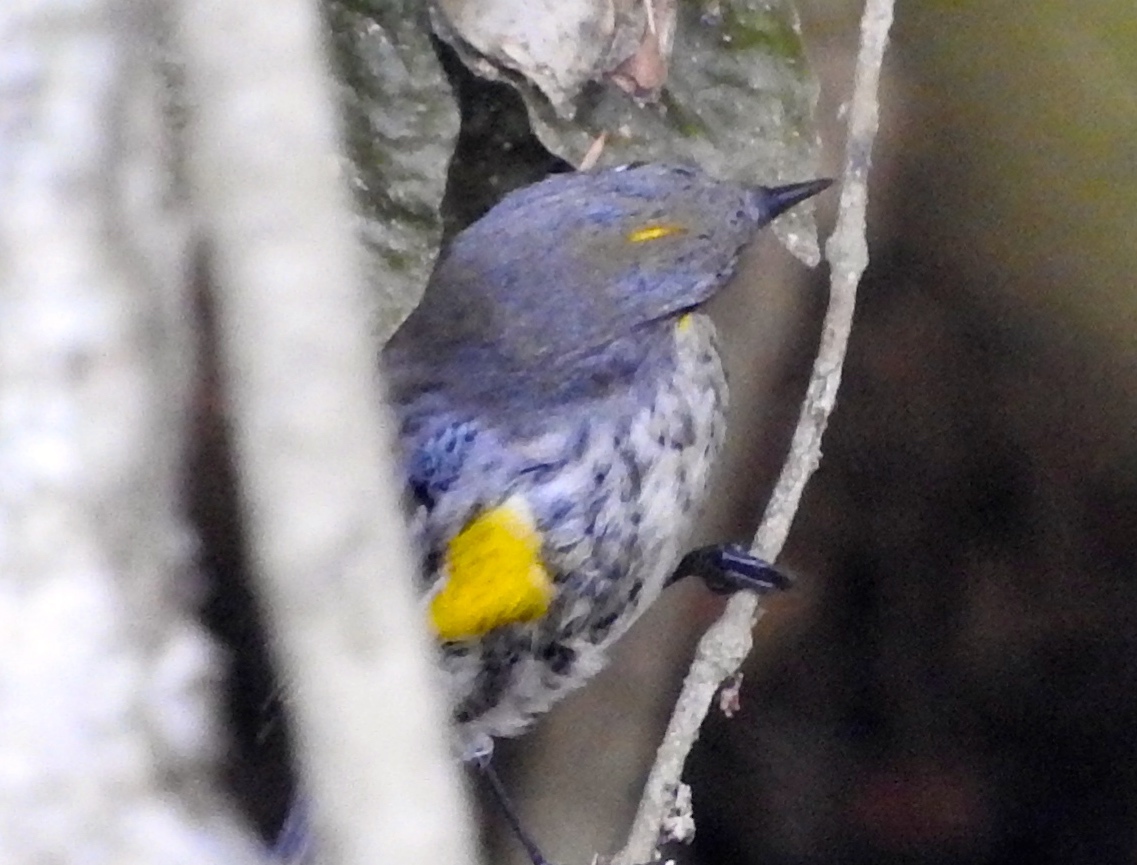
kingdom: Animalia
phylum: Chordata
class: Aves
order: Passeriformes
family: Parulidae
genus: Setophaga
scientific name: Setophaga auduboni
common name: Audubon's warbler
